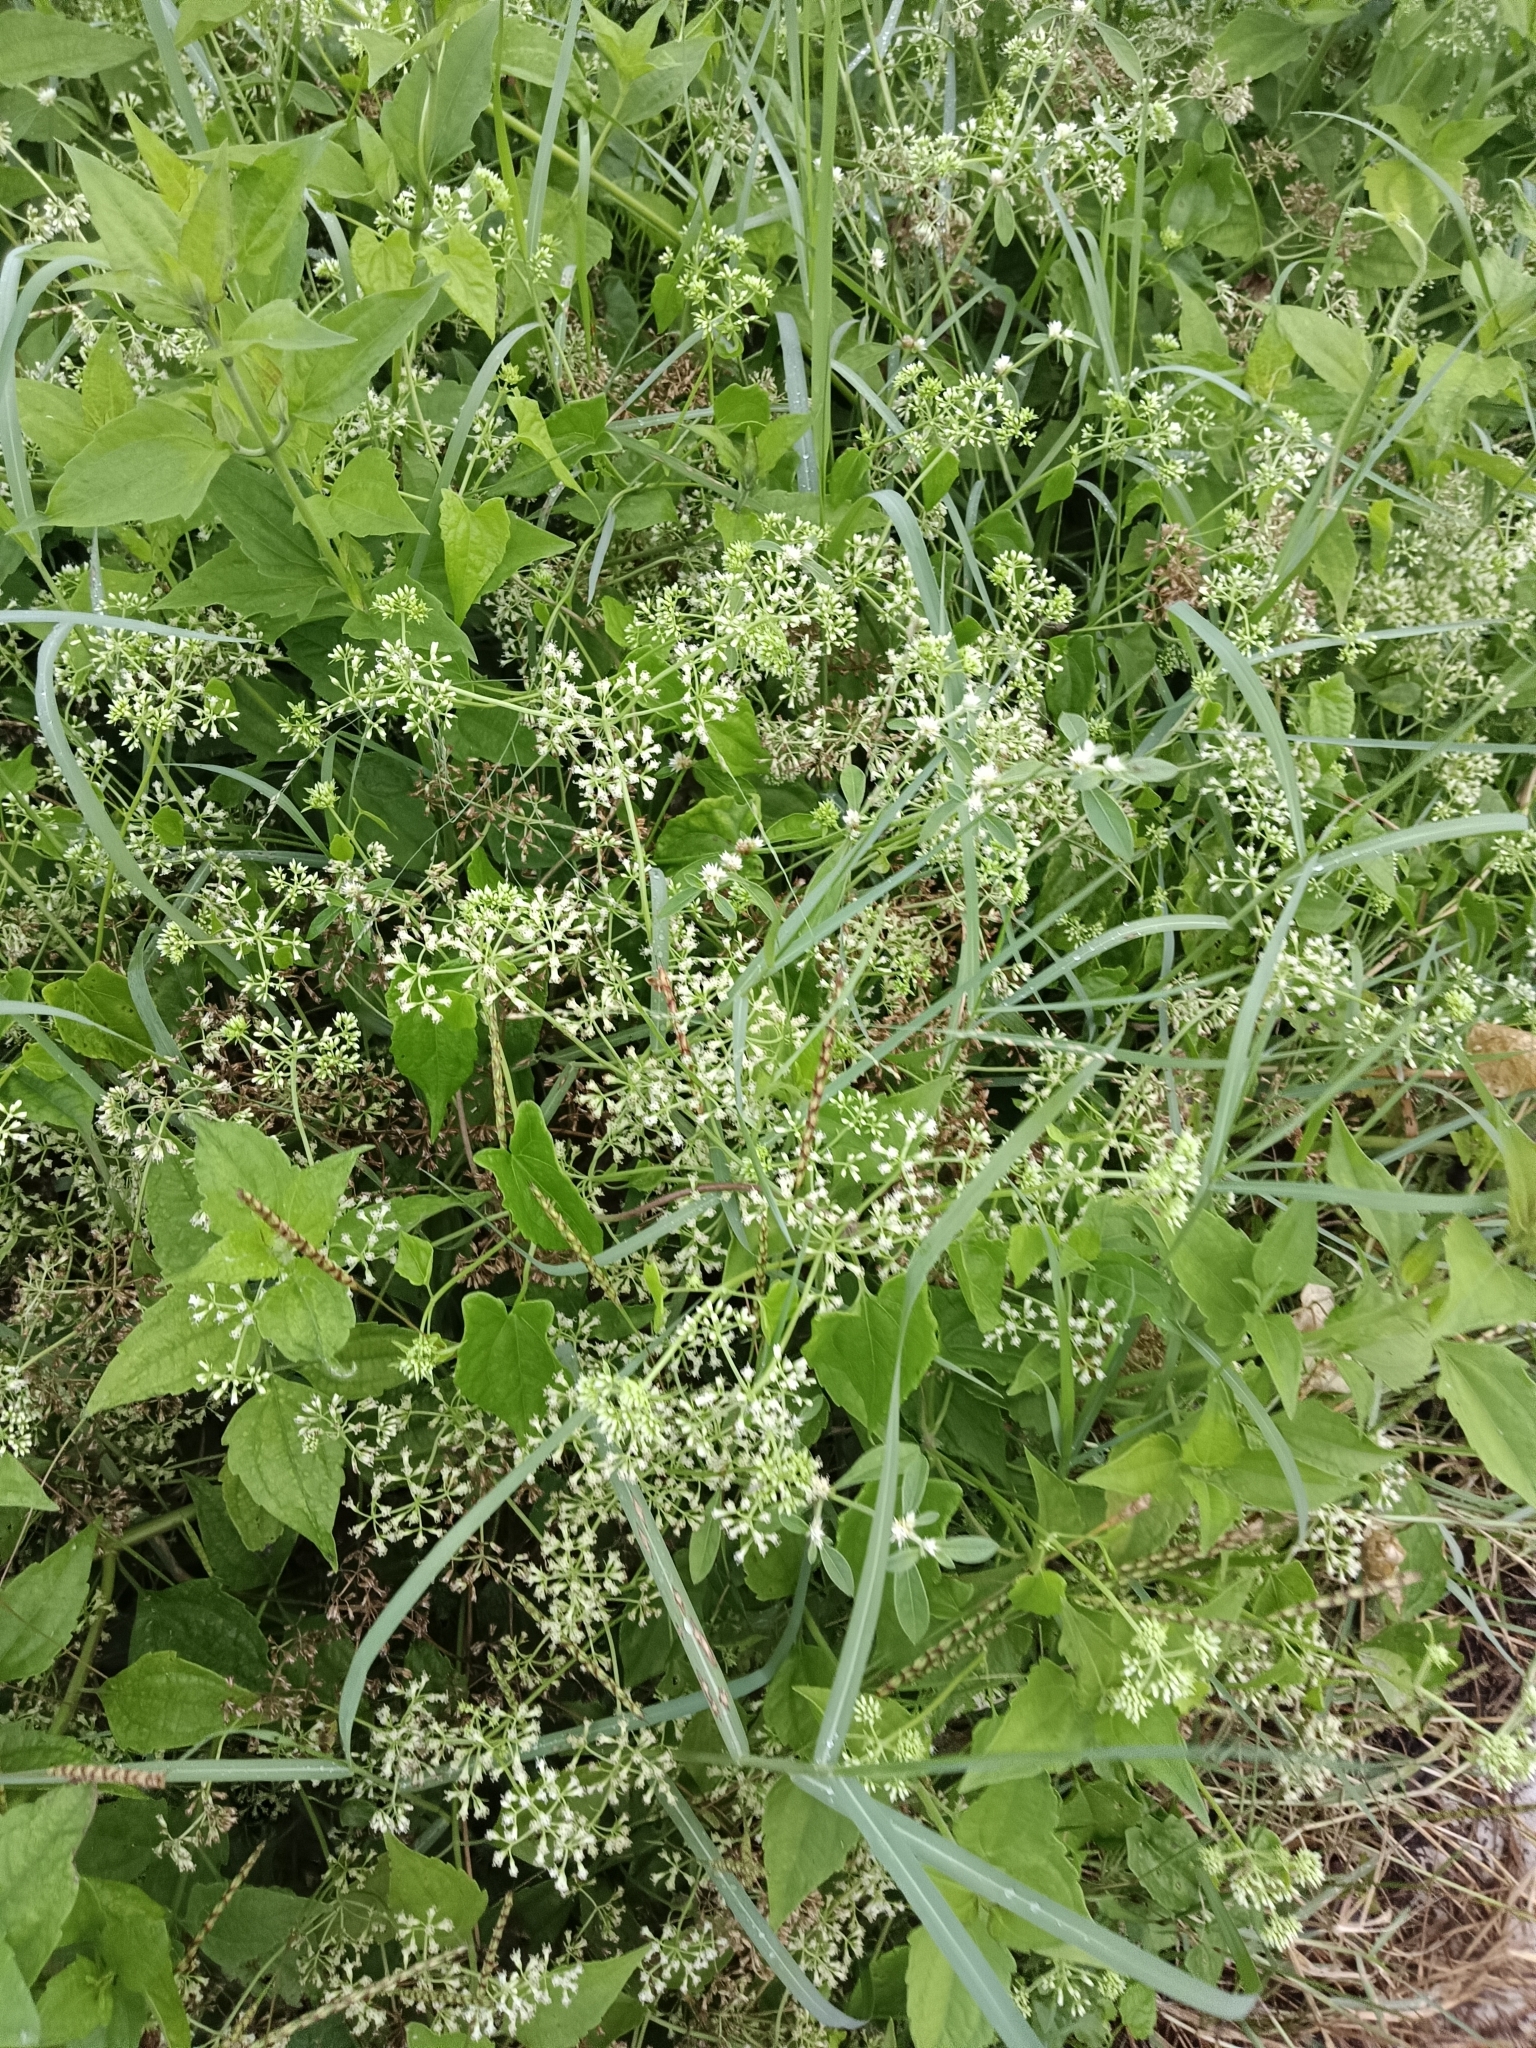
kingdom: Plantae
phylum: Tracheophyta
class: Magnoliopsida
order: Asterales
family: Asteraceae
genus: Mikania
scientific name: Mikania micrantha
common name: Mile-a-minute
